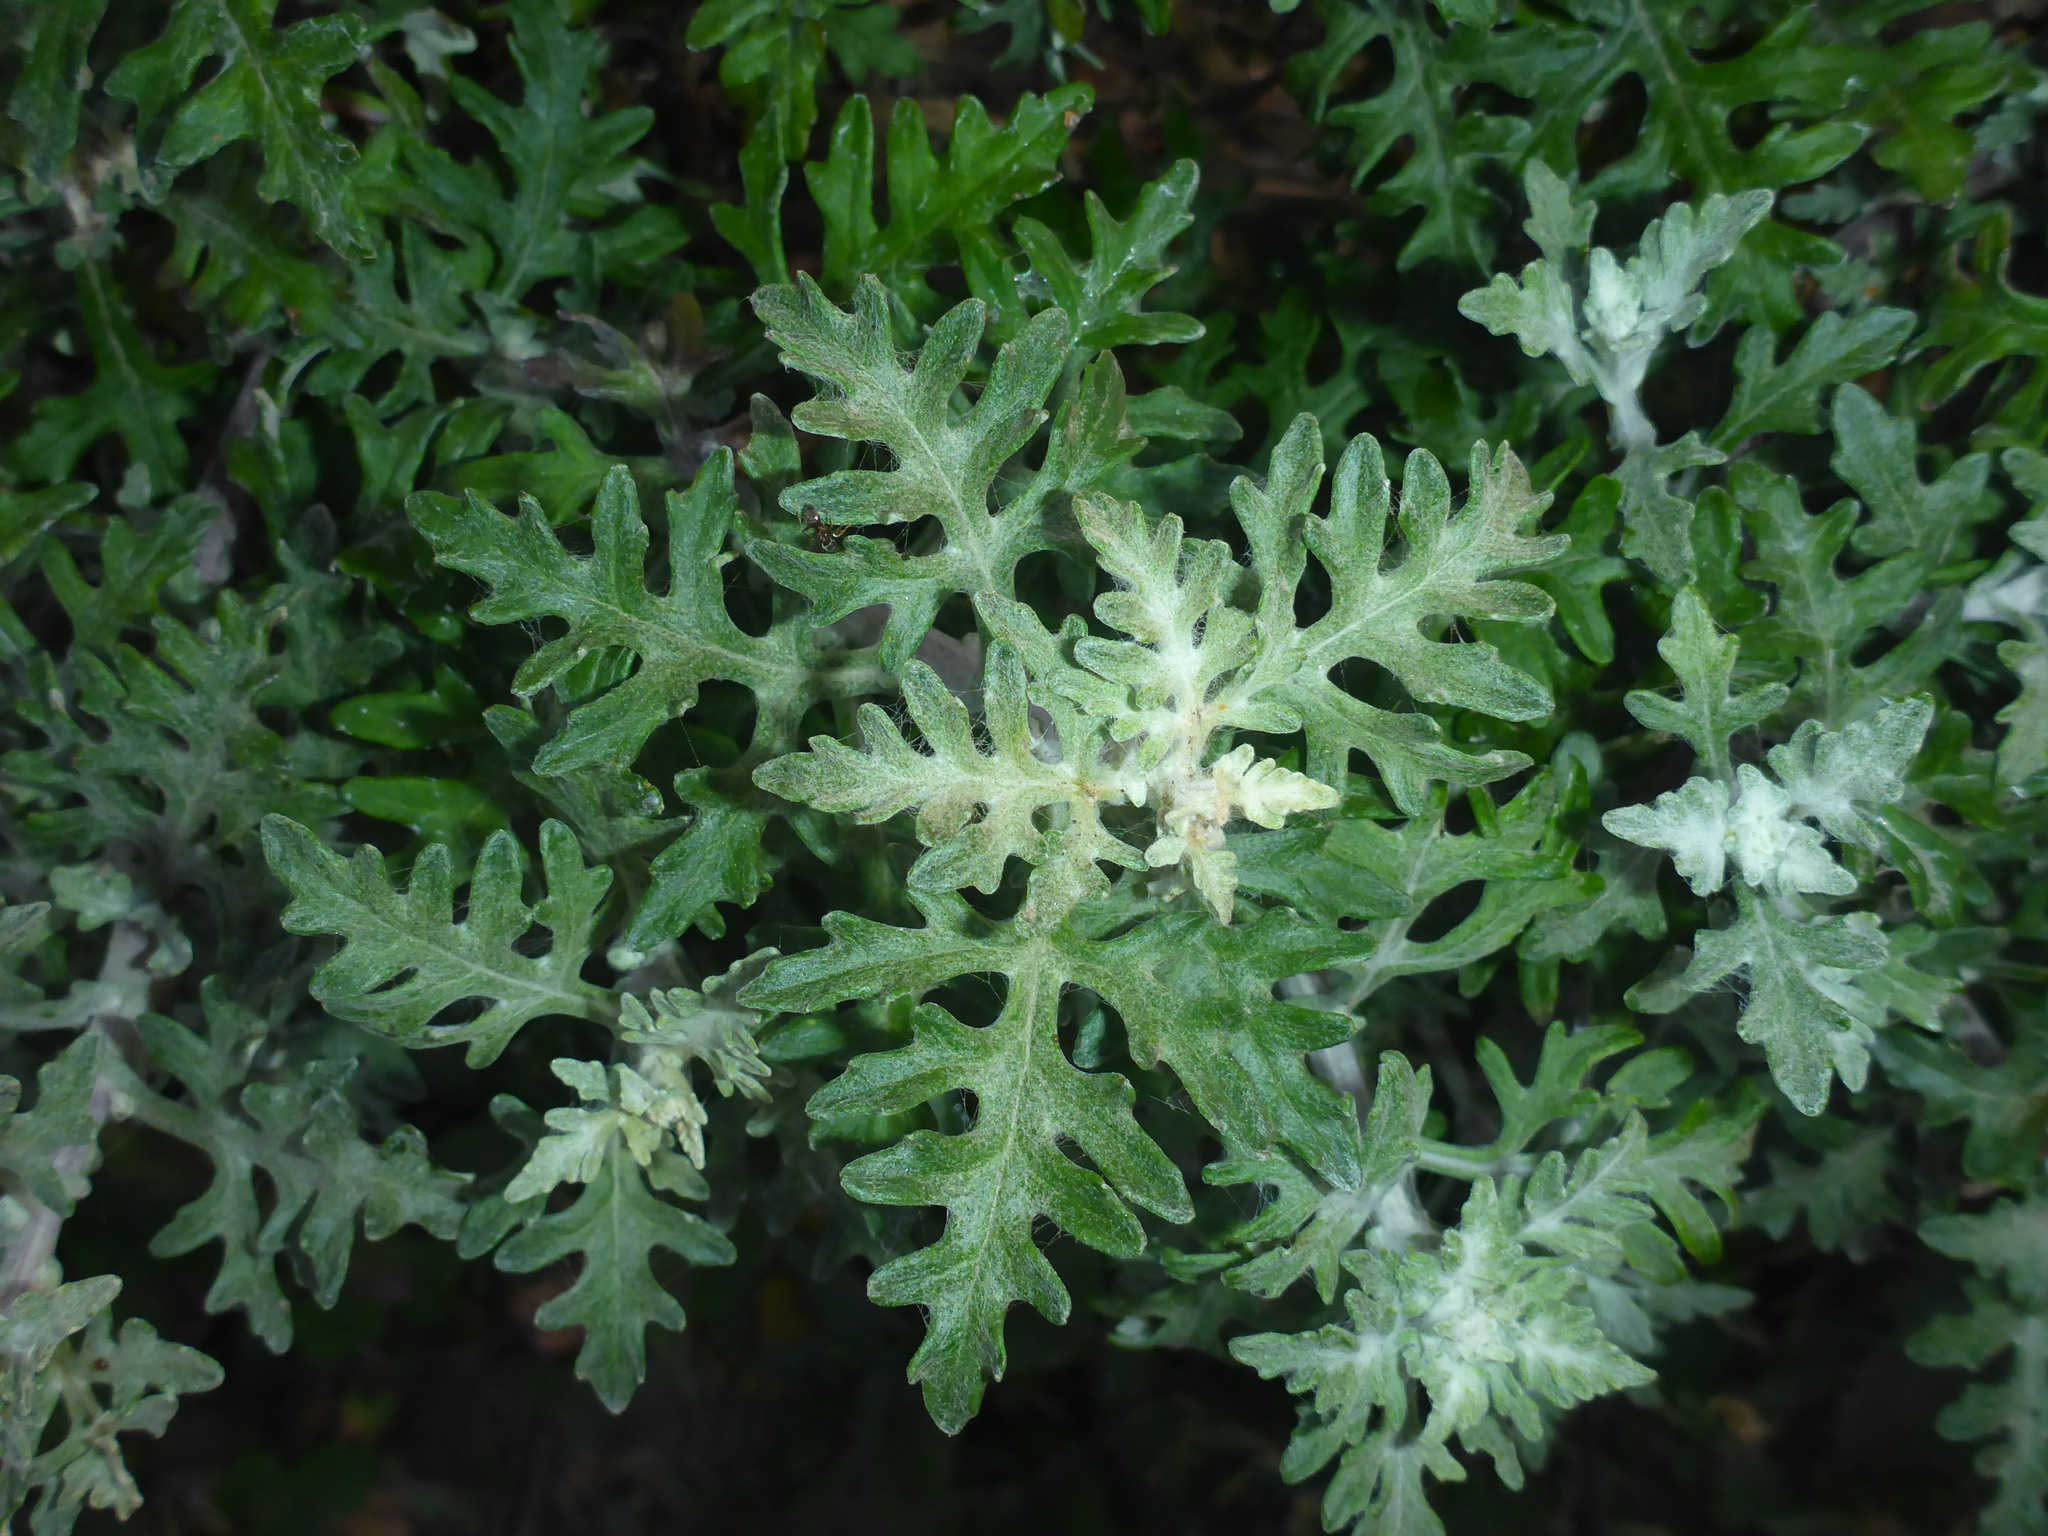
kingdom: Plantae
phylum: Tracheophyta
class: Magnoliopsida
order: Asterales
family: Asteraceae
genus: Eriophyllum
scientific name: Eriophyllum staechadifolium
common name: Lizardtail
